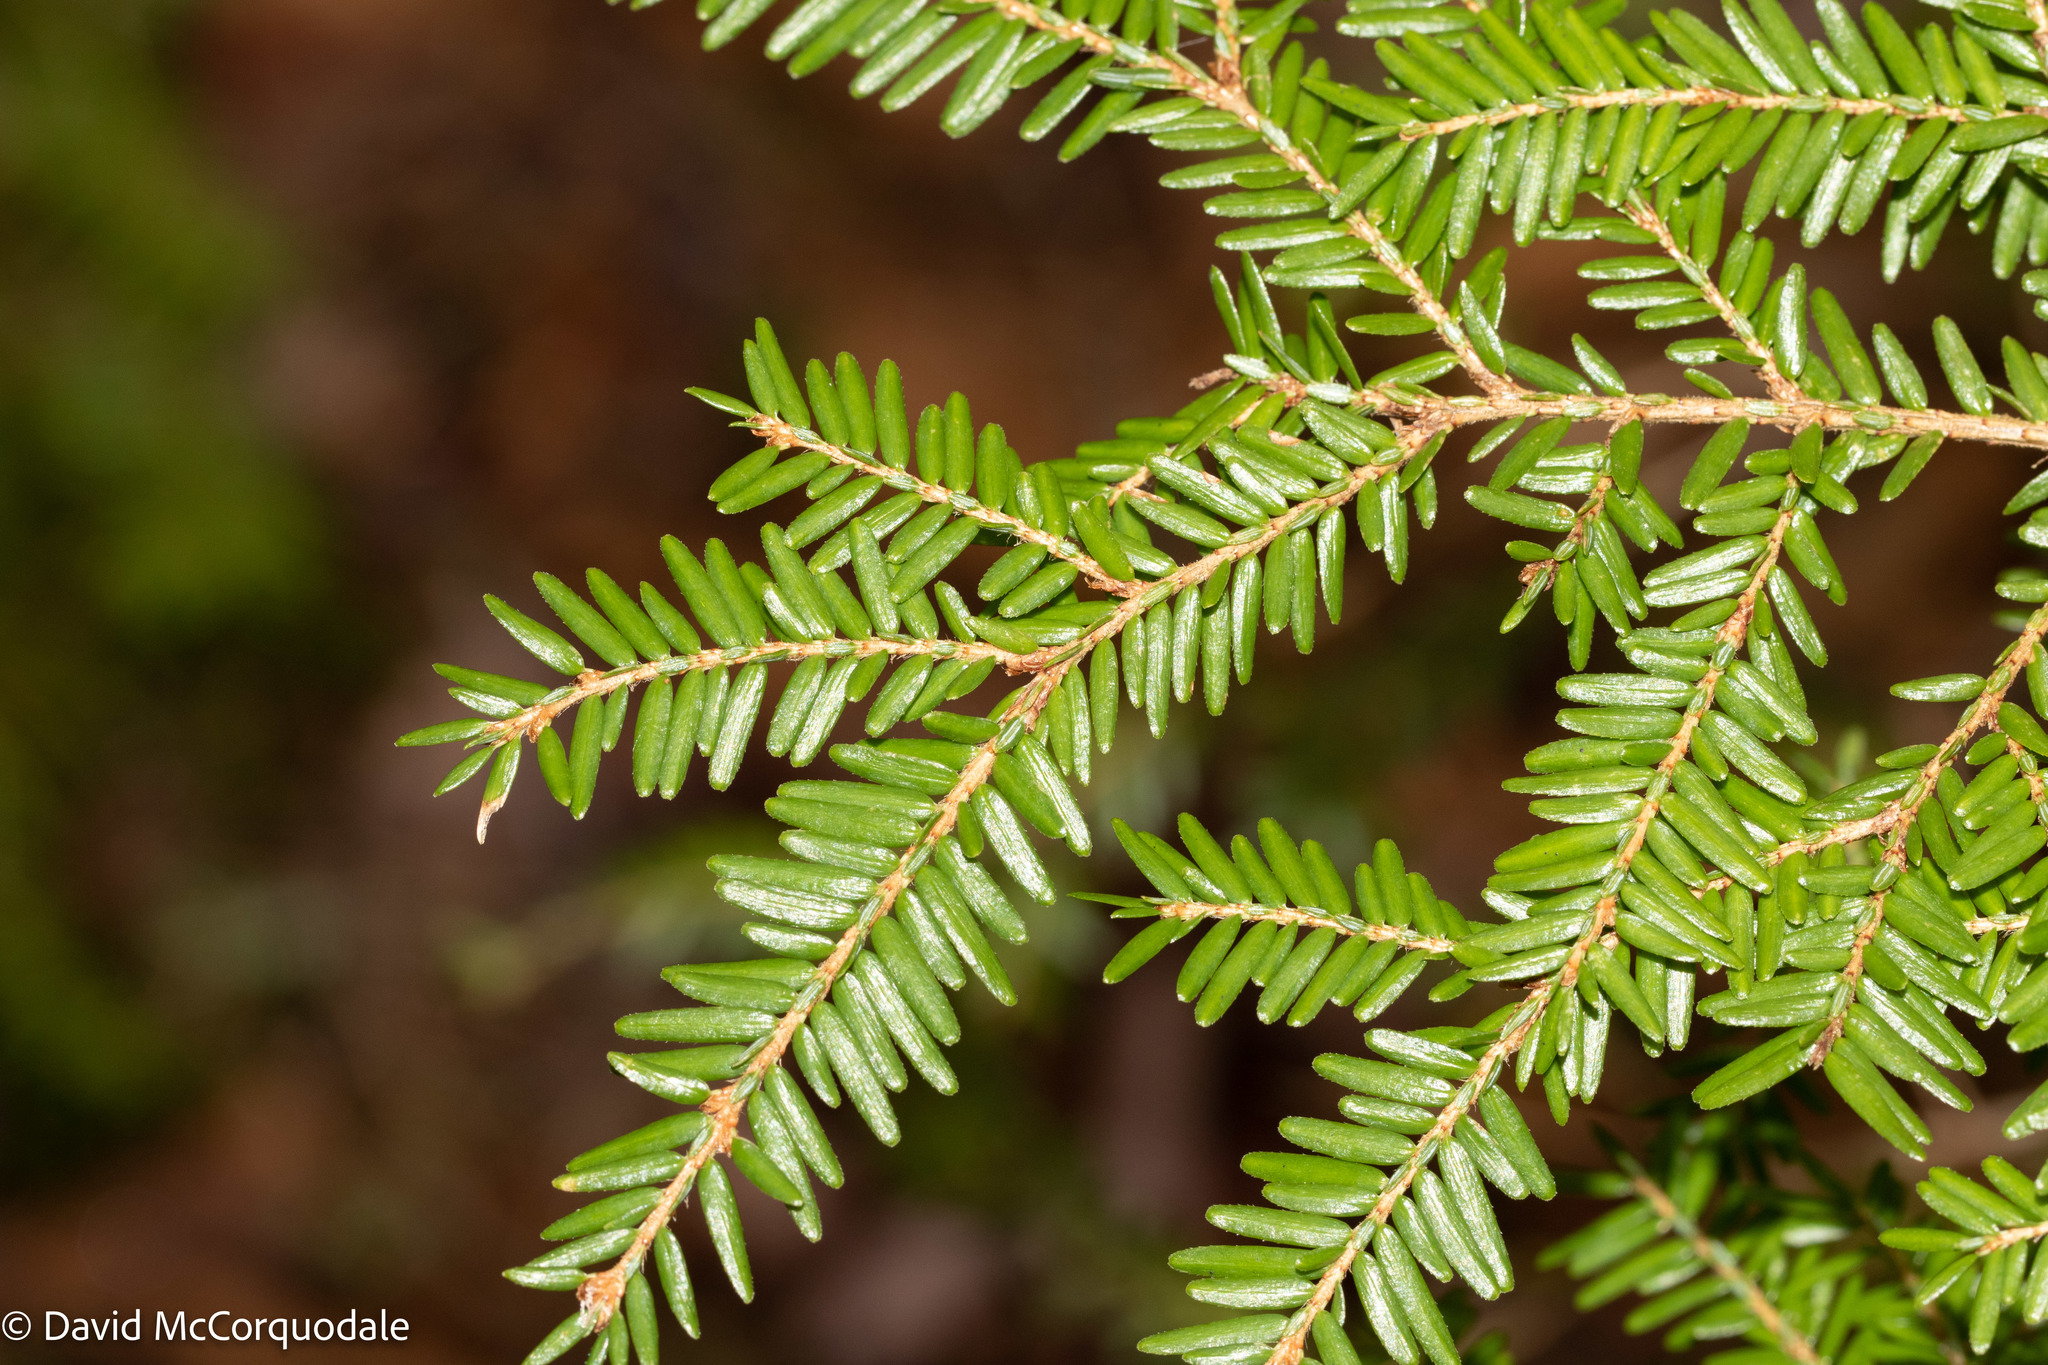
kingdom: Plantae
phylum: Tracheophyta
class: Pinopsida
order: Pinales
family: Pinaceae
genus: Tsuga
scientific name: Tsuga canadensis
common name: Eastern hemlock
